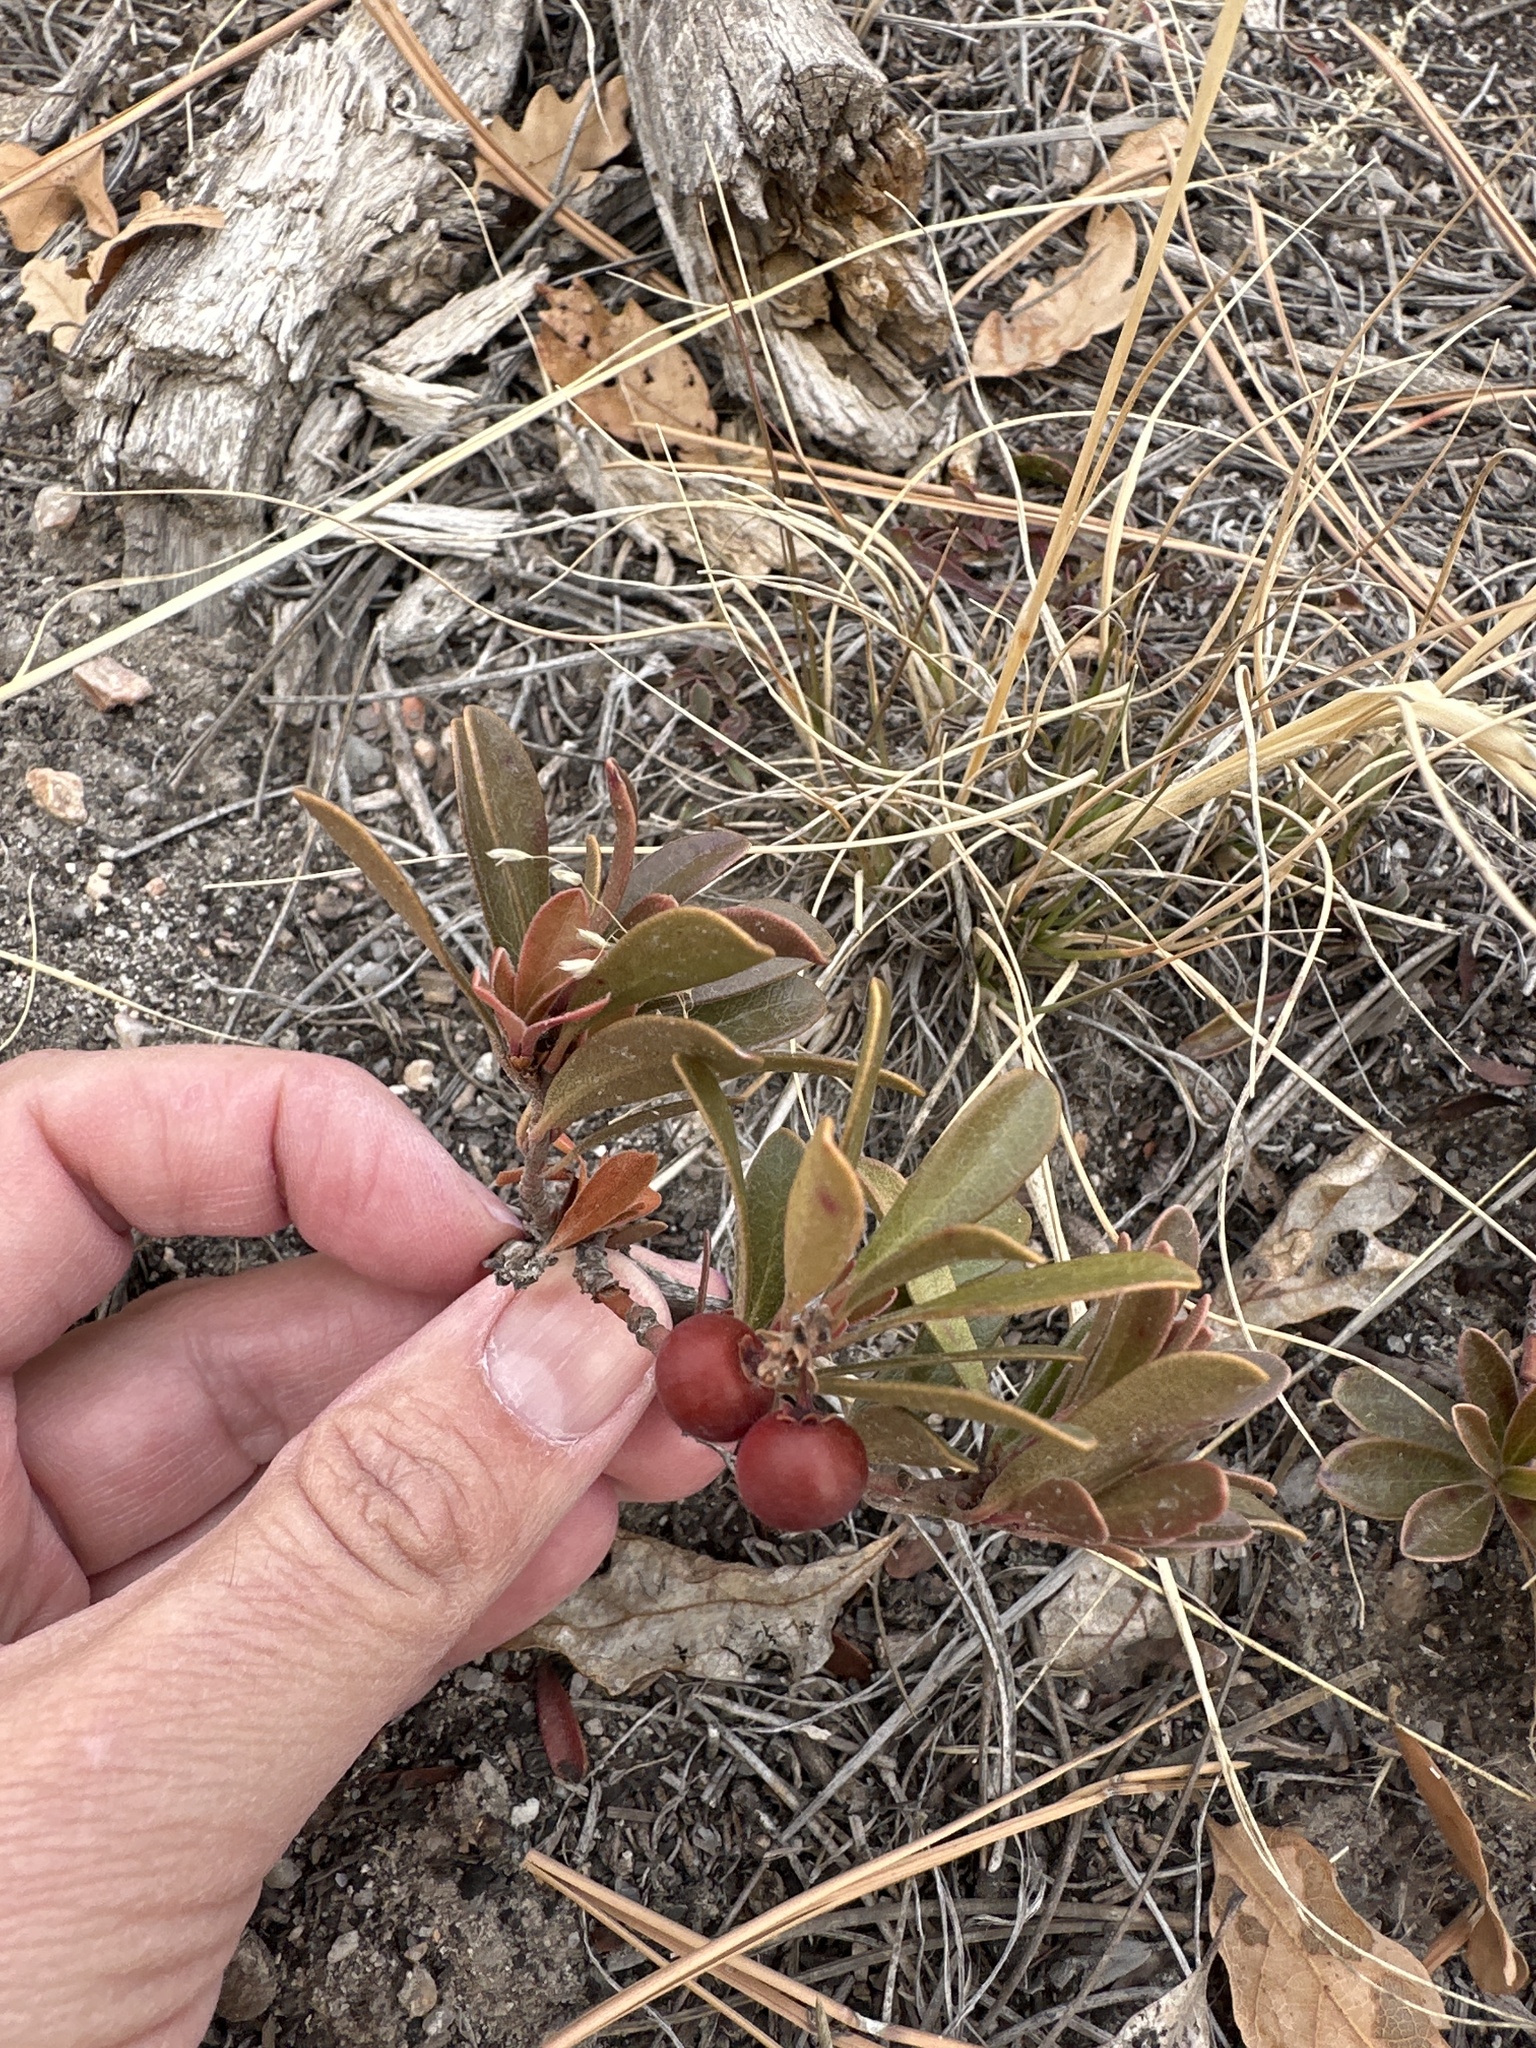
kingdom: Plantae
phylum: Tracheophyta
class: Magnoliopsida
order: Ericales
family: Ericaceae
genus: Arctostaphylos
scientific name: Arctostaphylos uva-ursi
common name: Bearberry
